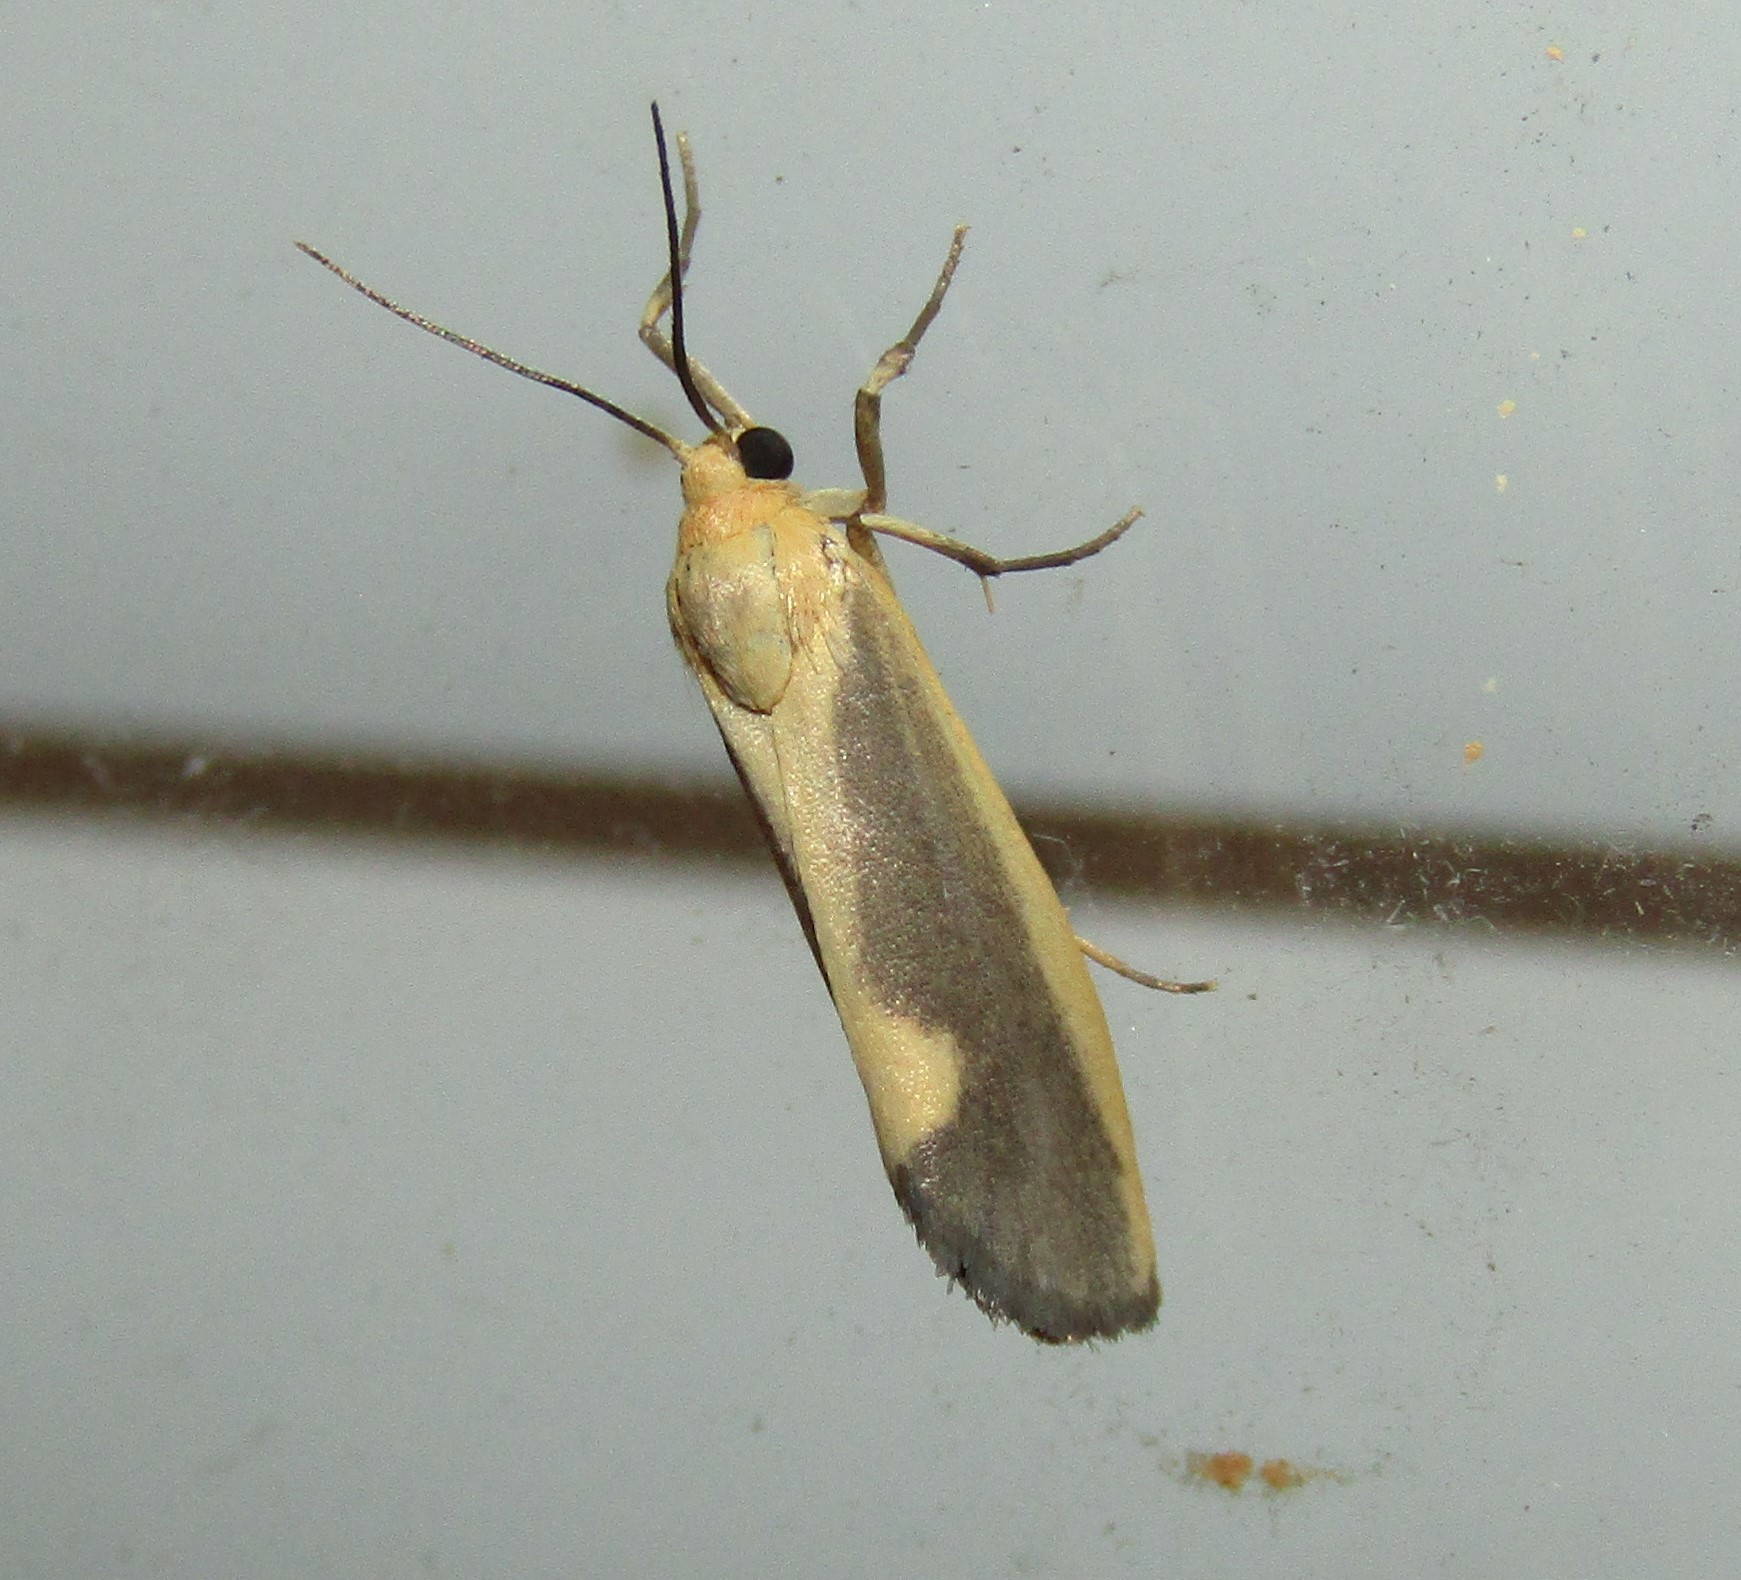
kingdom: Animalia
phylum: Arthropoda
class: Insecta
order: Lepidoptera
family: Erebidae
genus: Cisthene
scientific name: Cisthene plumbea
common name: Lead colored lichen moth
